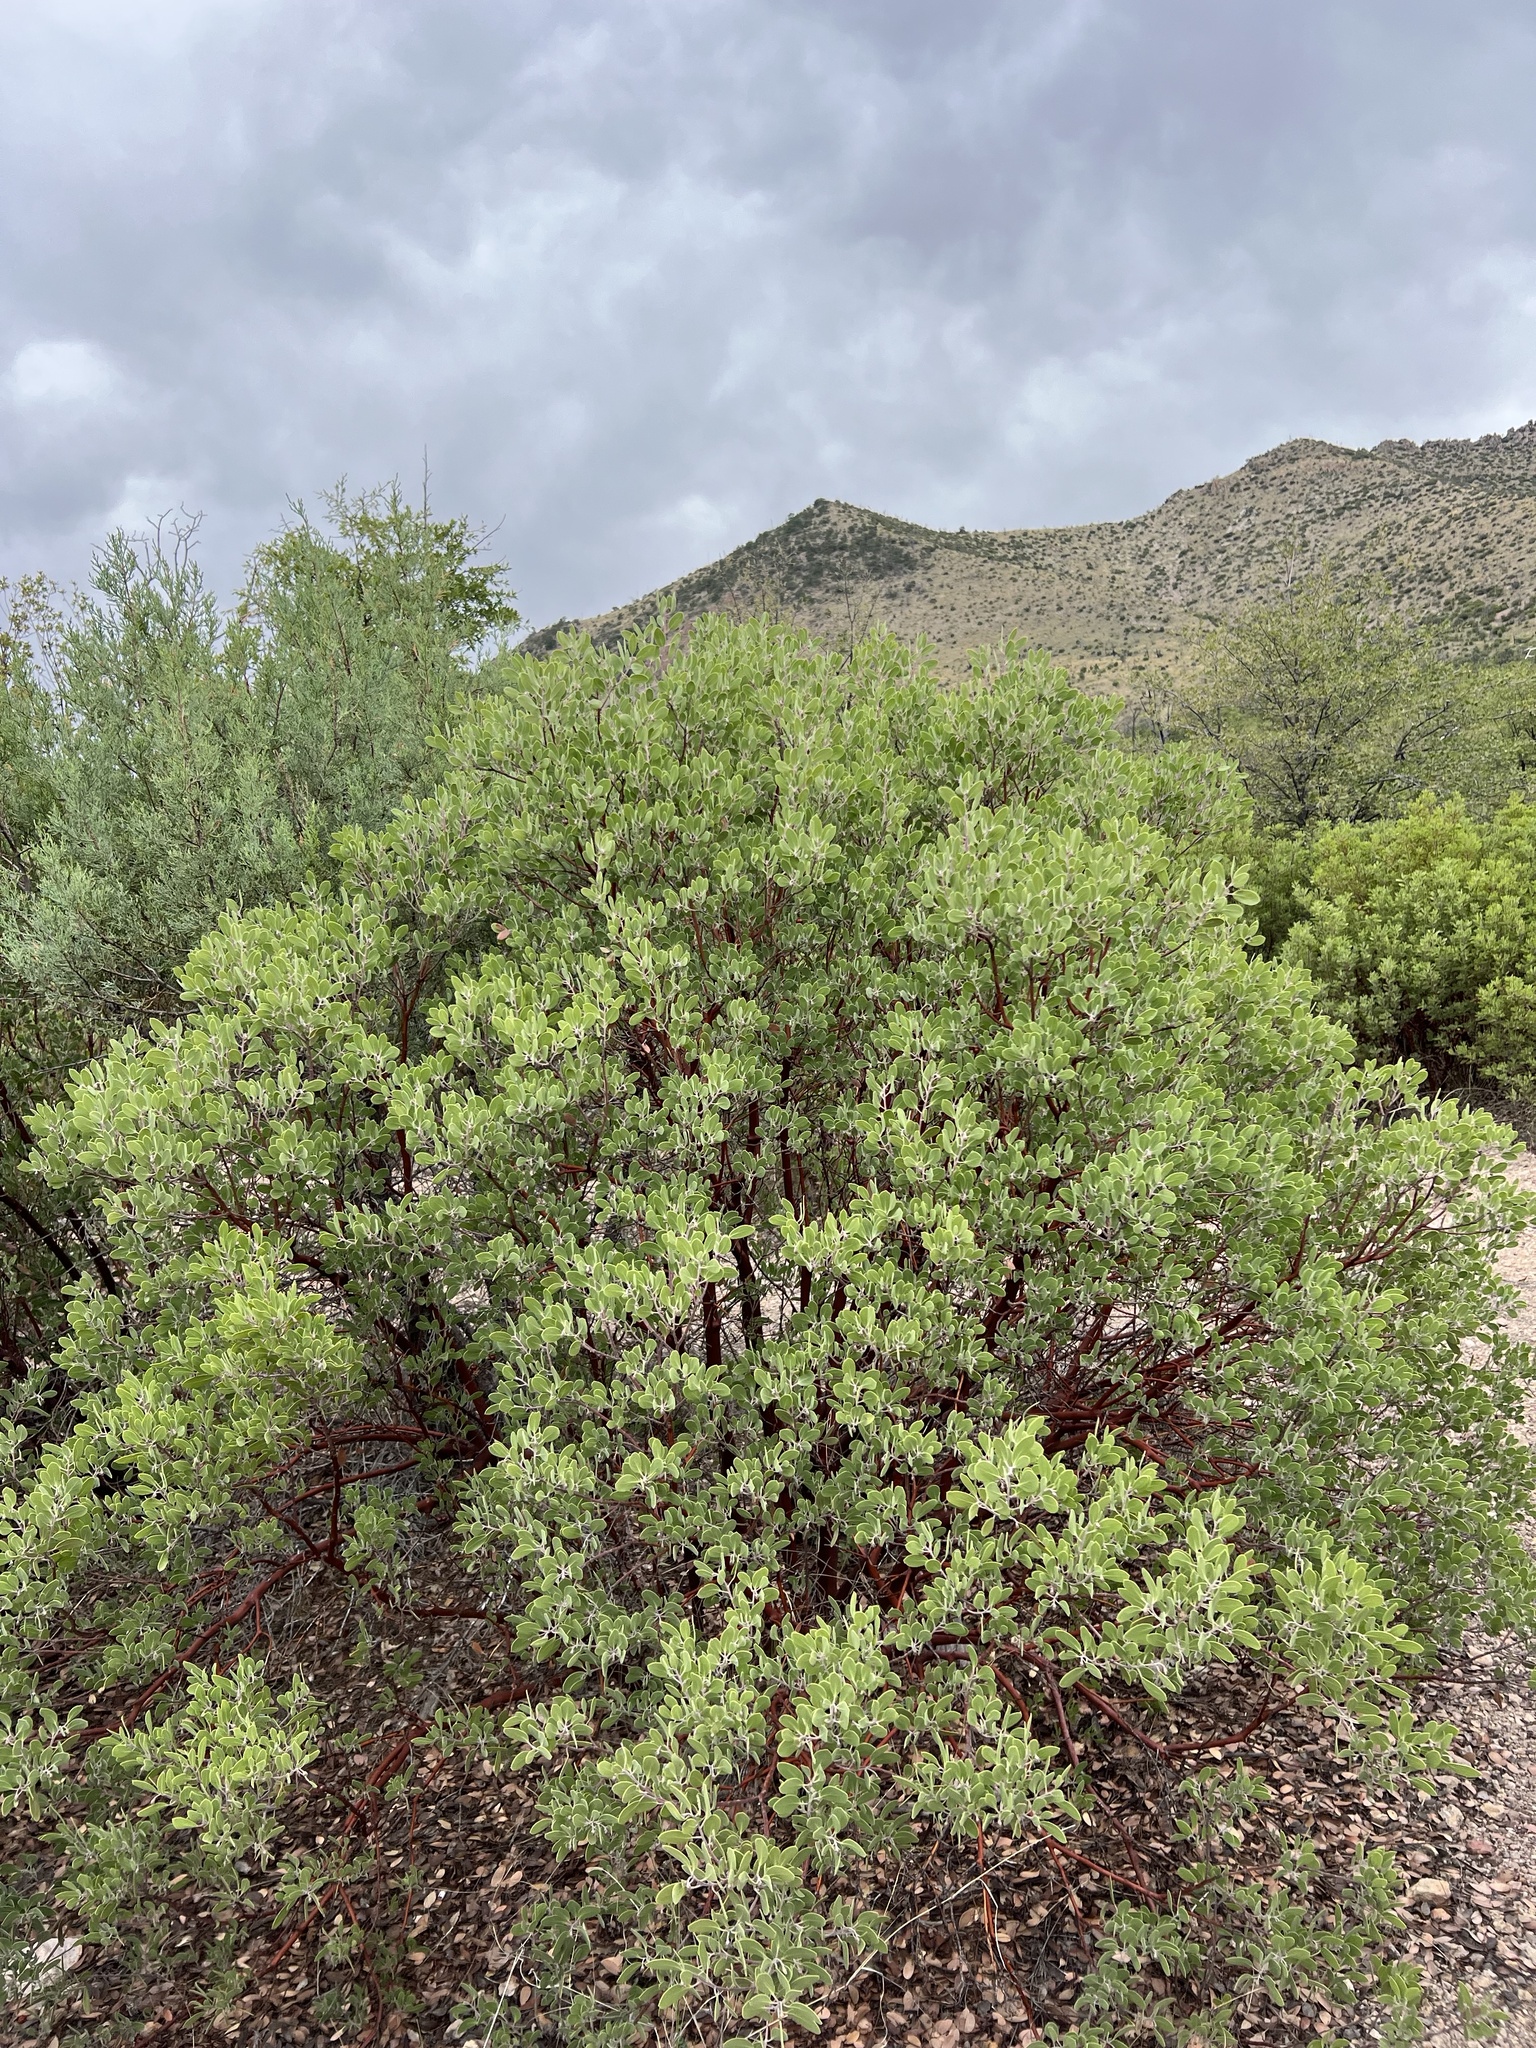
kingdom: Plantae
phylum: Tracheophyta
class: Magnoliopsida
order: Ericales
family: Ericaceae
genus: Arctostaphylos
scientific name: Arctostaphylos pungens
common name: Mexican manzanita
